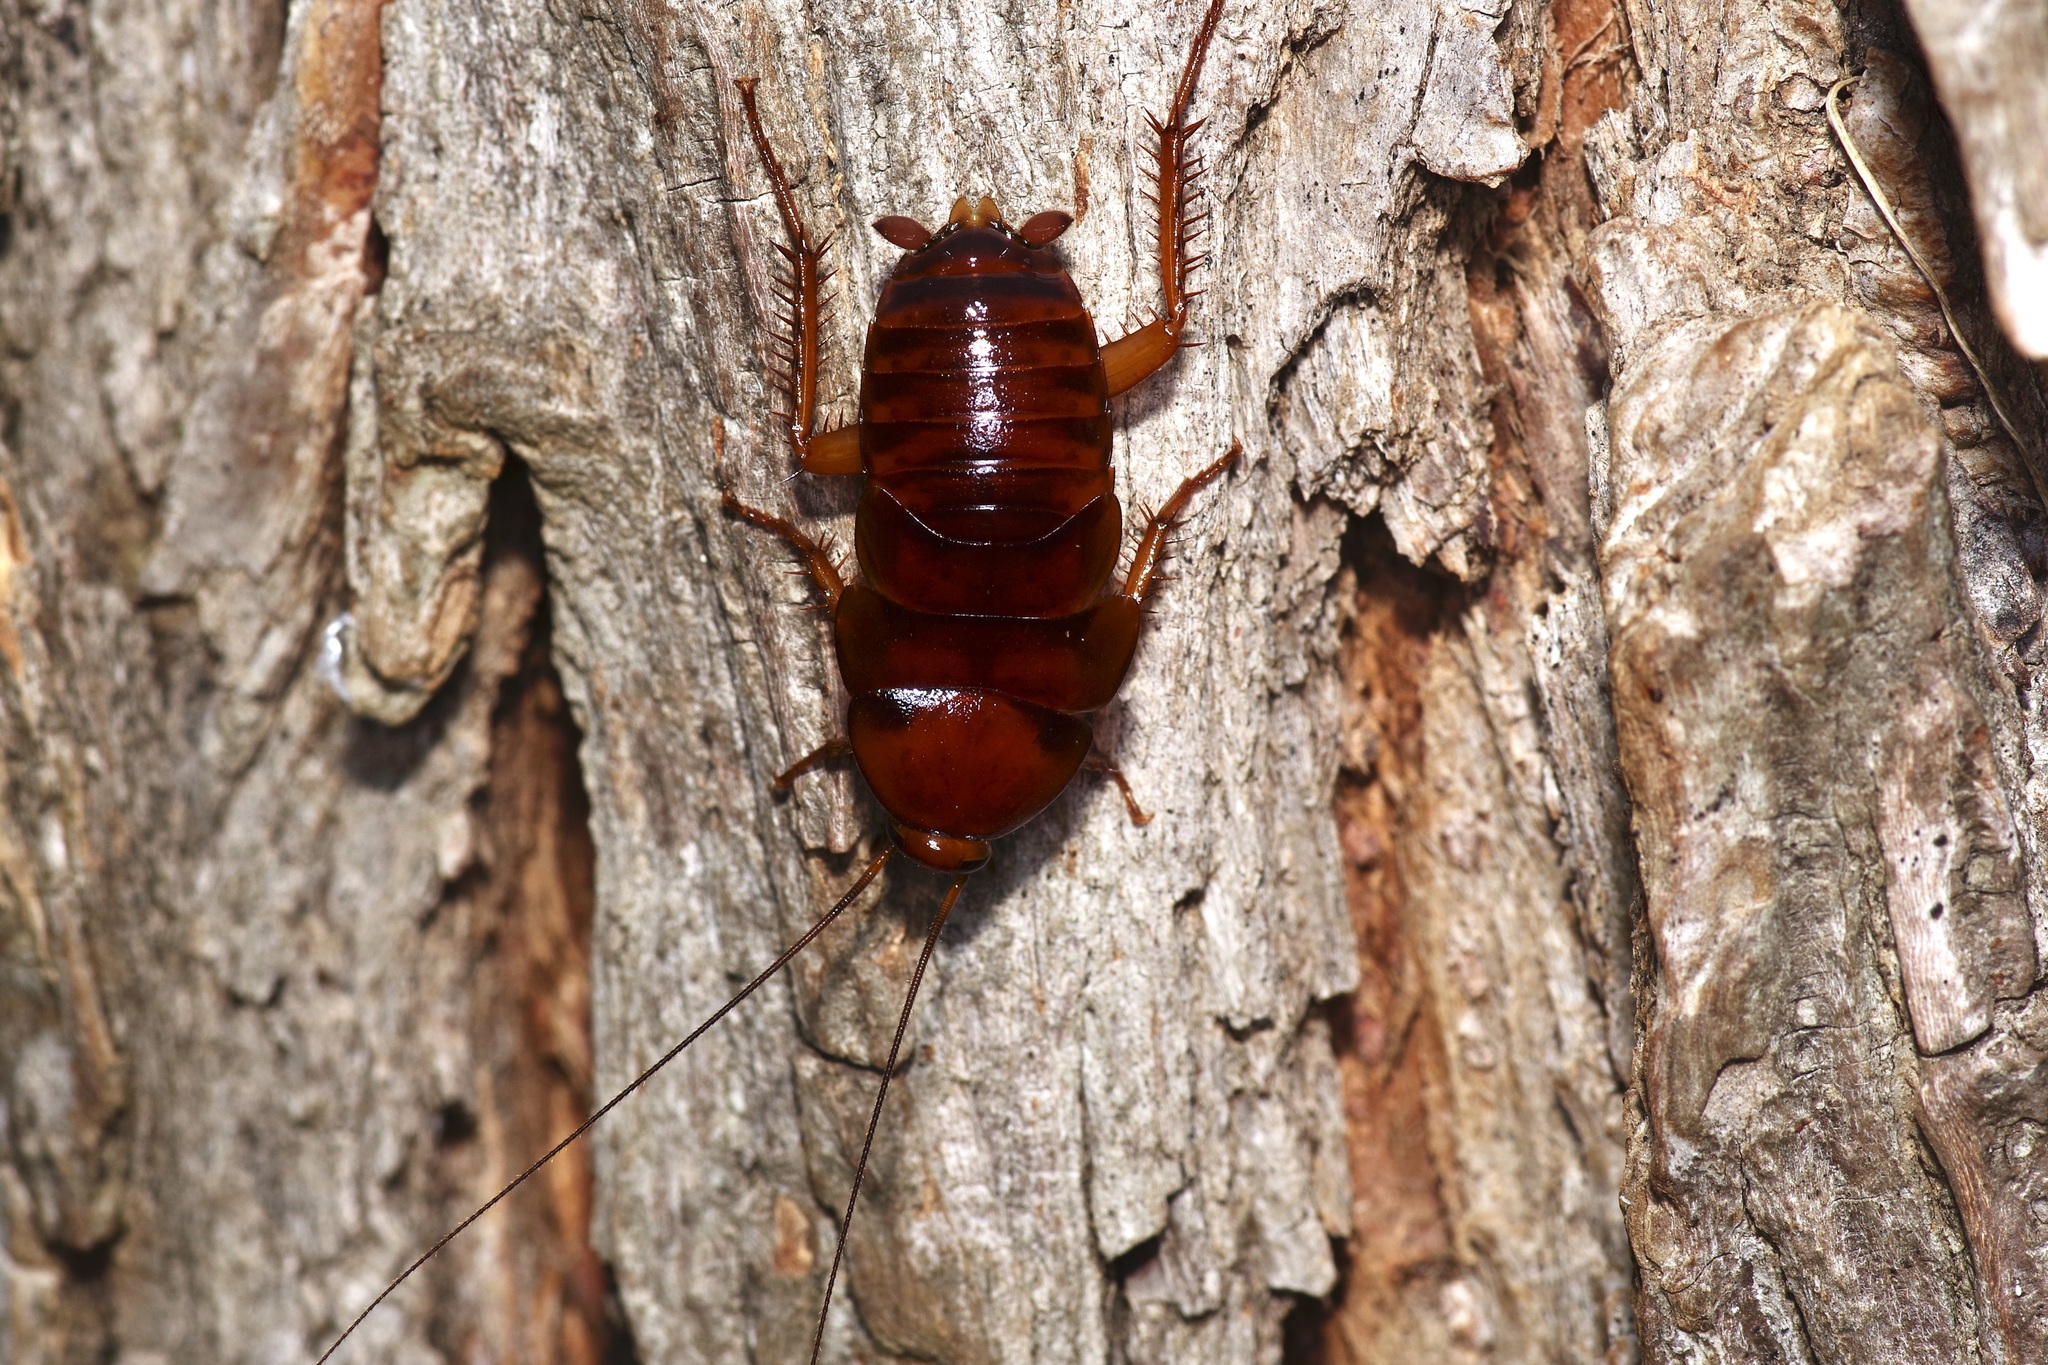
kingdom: Animalia
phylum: Arthropoda
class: Insecta
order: Blattodea
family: Blattidae
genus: Periplaneta
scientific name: Periplaneta fuliginosa
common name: Smokeybrown cockroad
